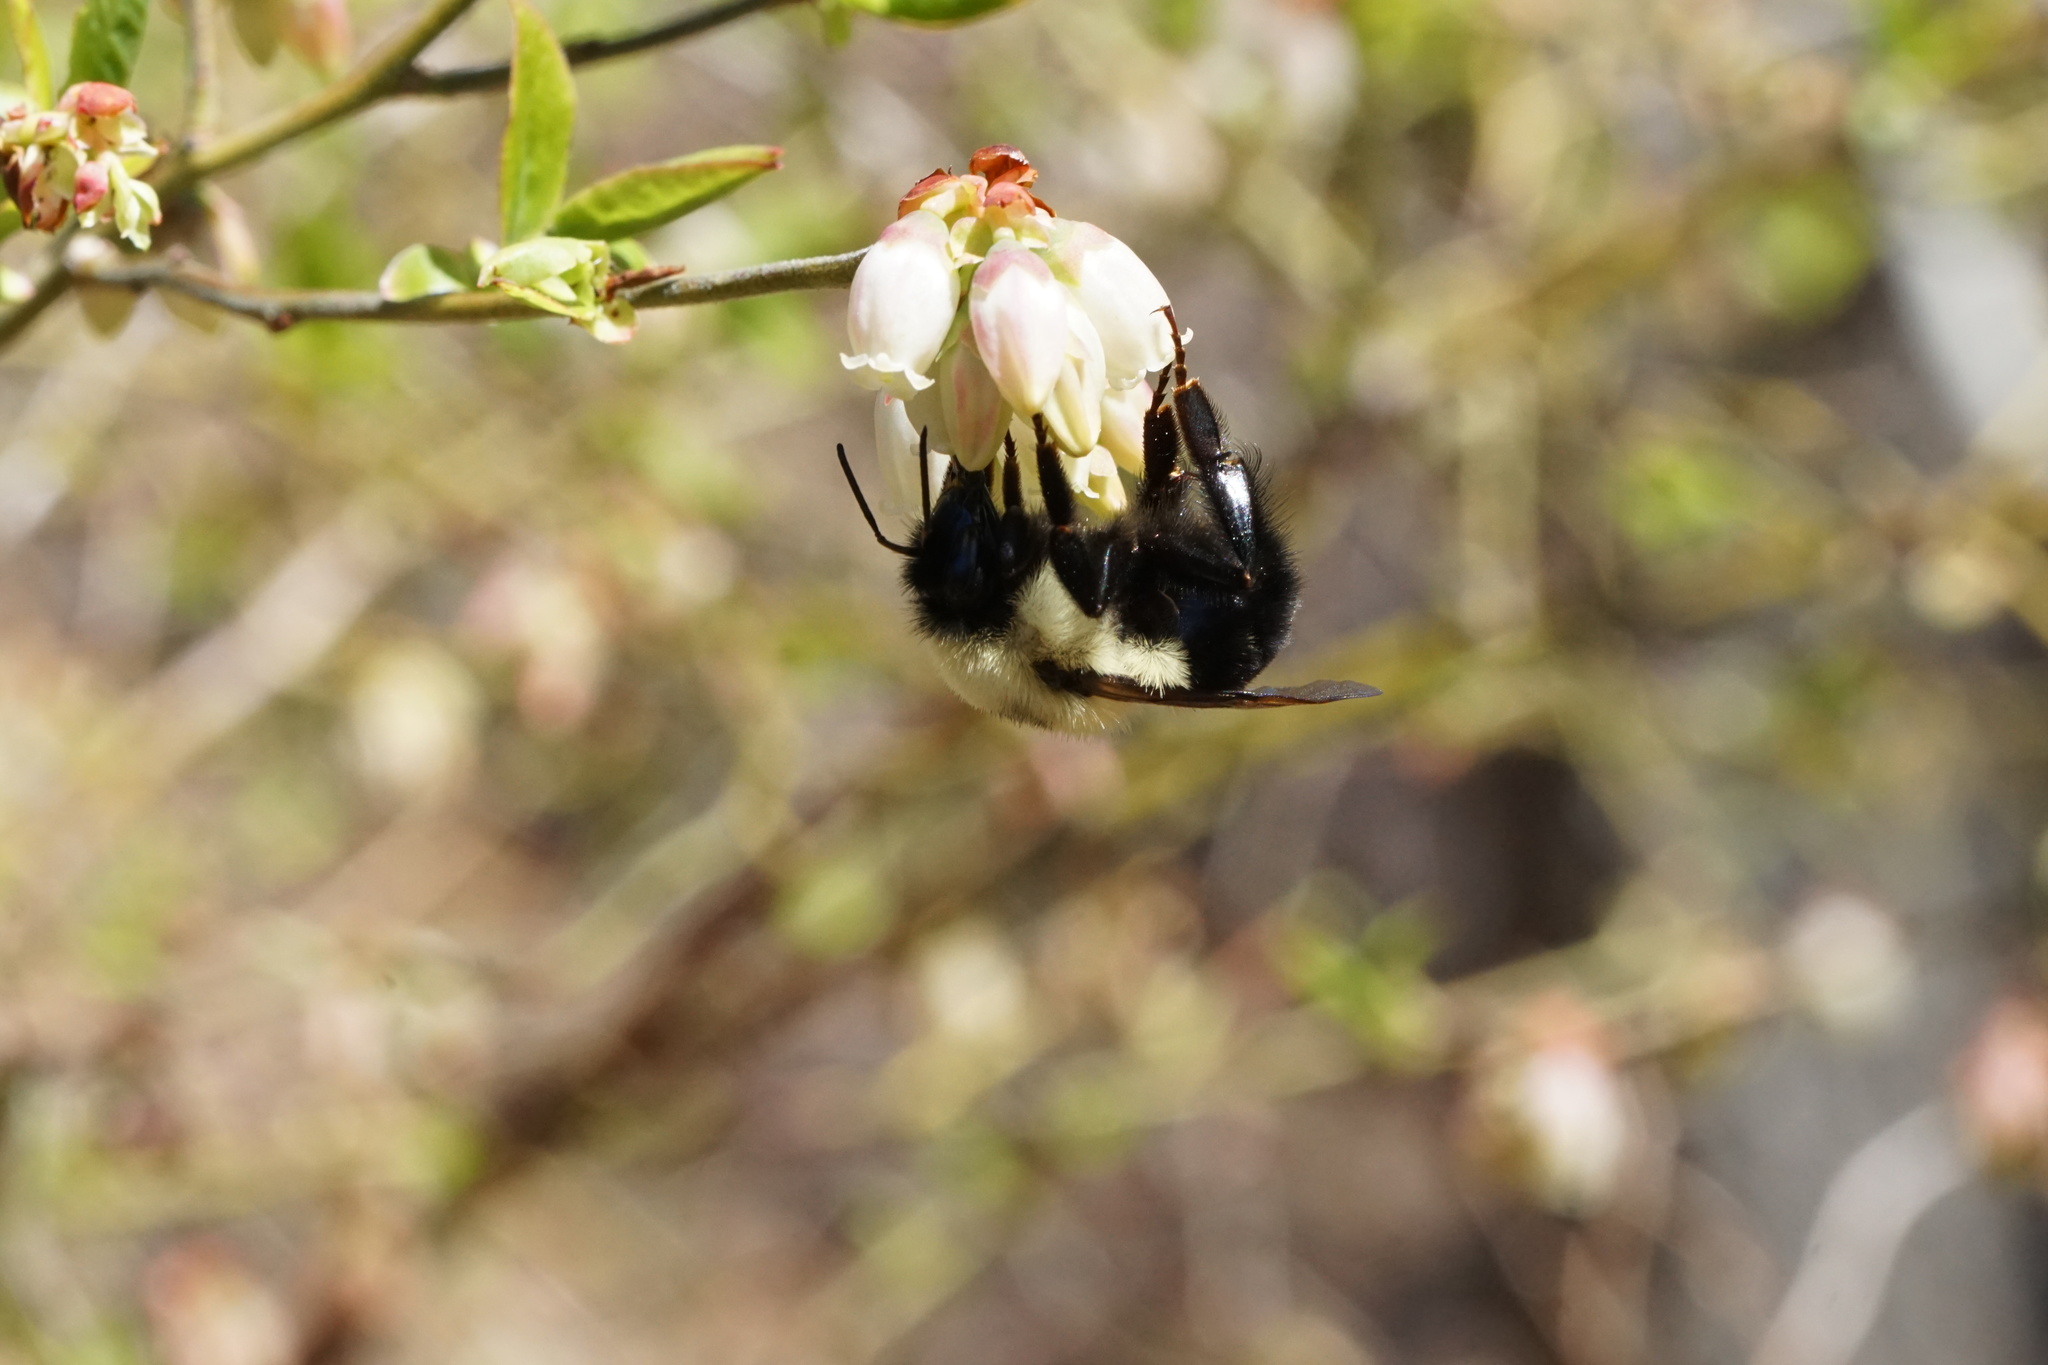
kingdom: Animalia
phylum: Arthropoda
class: Insecta
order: Hymenoptera
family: Apidae
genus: Bombus
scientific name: Bombus bimaculatus
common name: Two-spotted bumble bee
